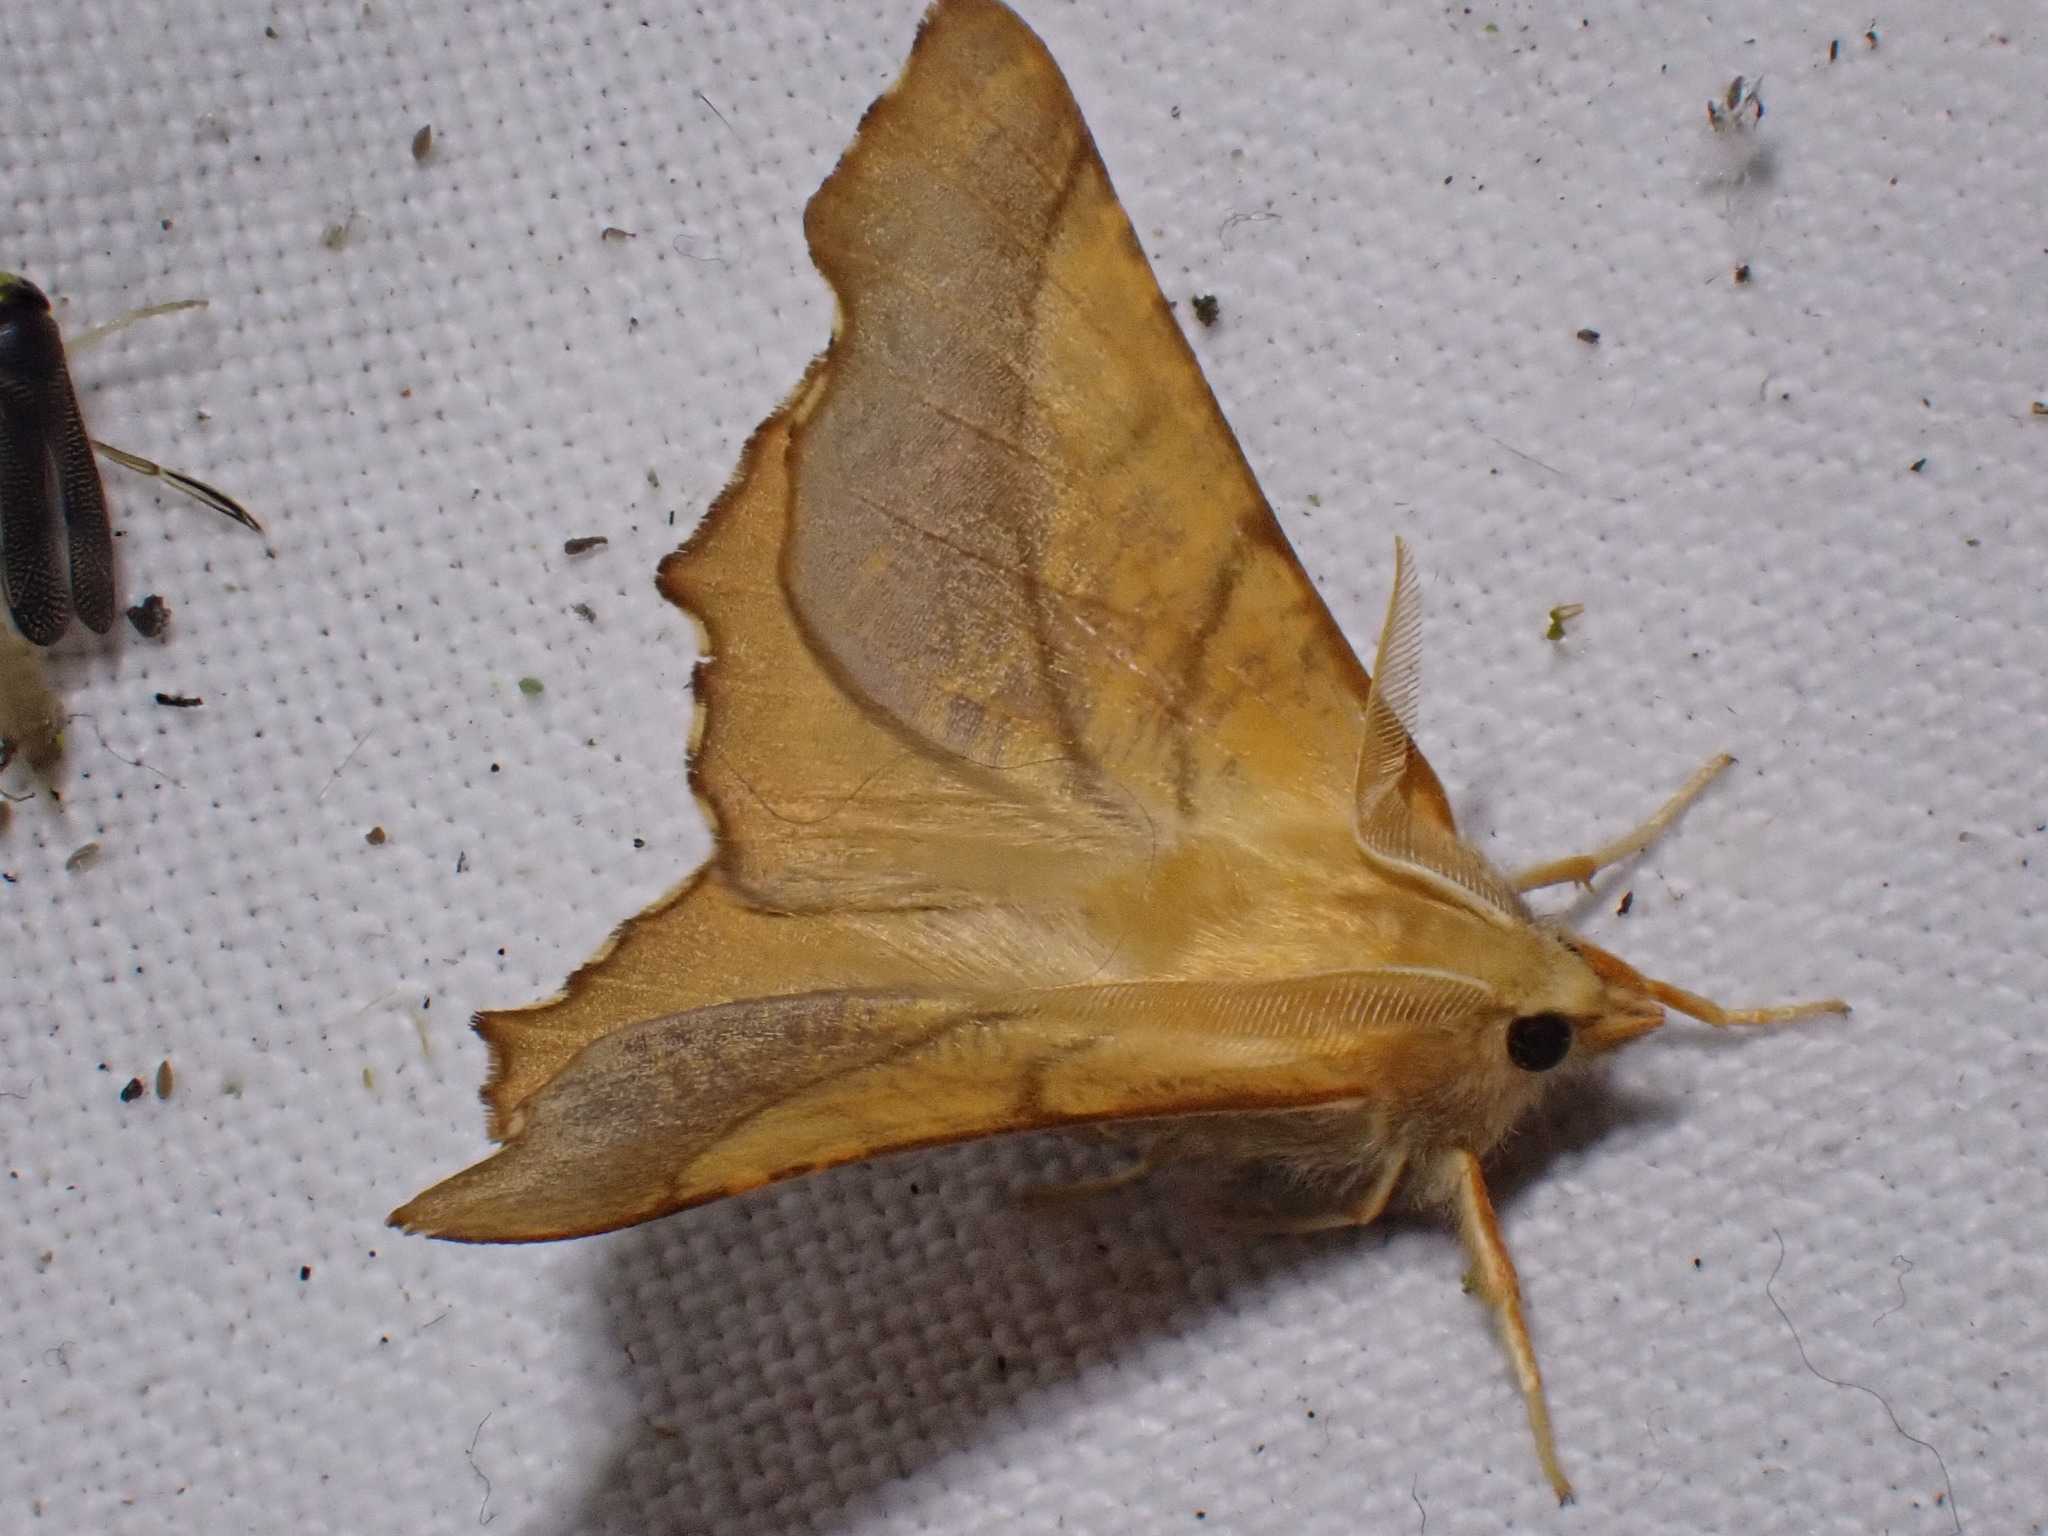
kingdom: Animalia
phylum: Arthropoda
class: Insecta
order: Lepidoptera
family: Geometridae
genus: Ennomos
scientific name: Ennomos fuscantaria
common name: Dusky thorn
